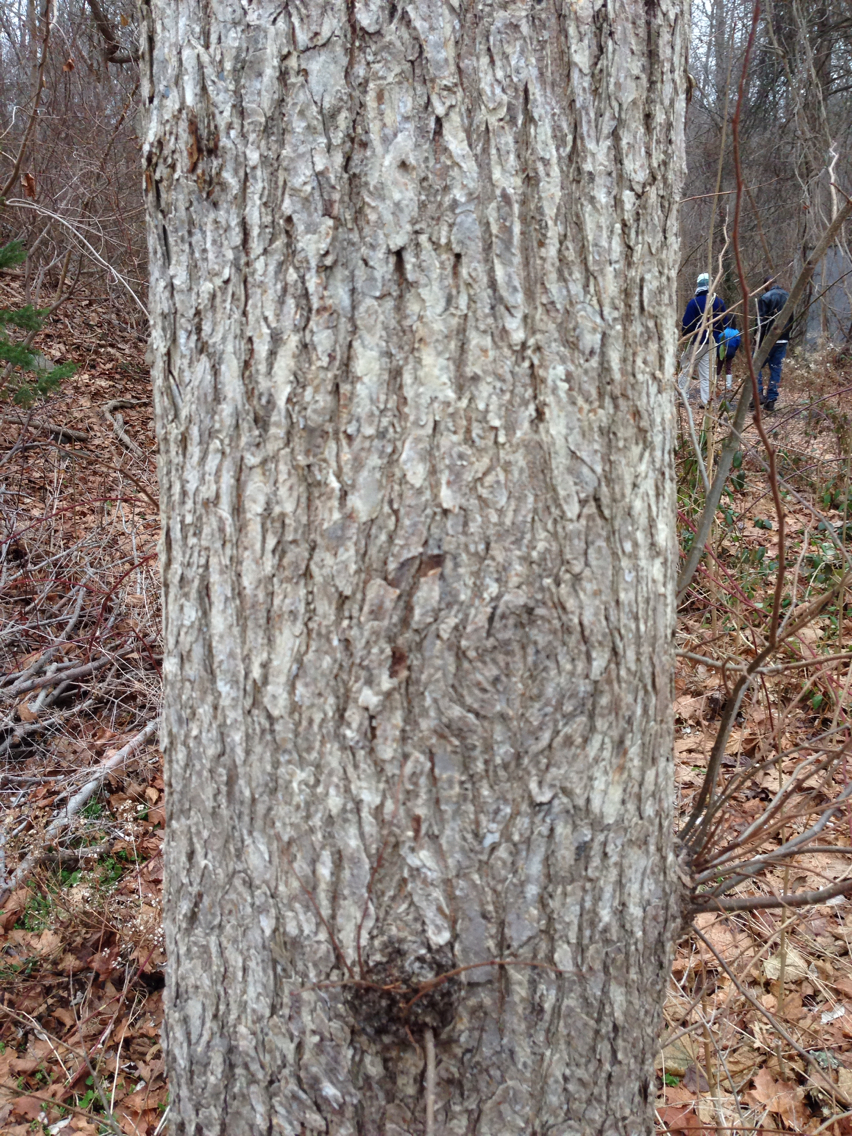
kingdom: Plantae
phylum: Tracheophyta
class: Magnoliopsida
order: Rosales
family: Ulmaceae
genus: Ulmus
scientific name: Ulmus americana
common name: American elm
